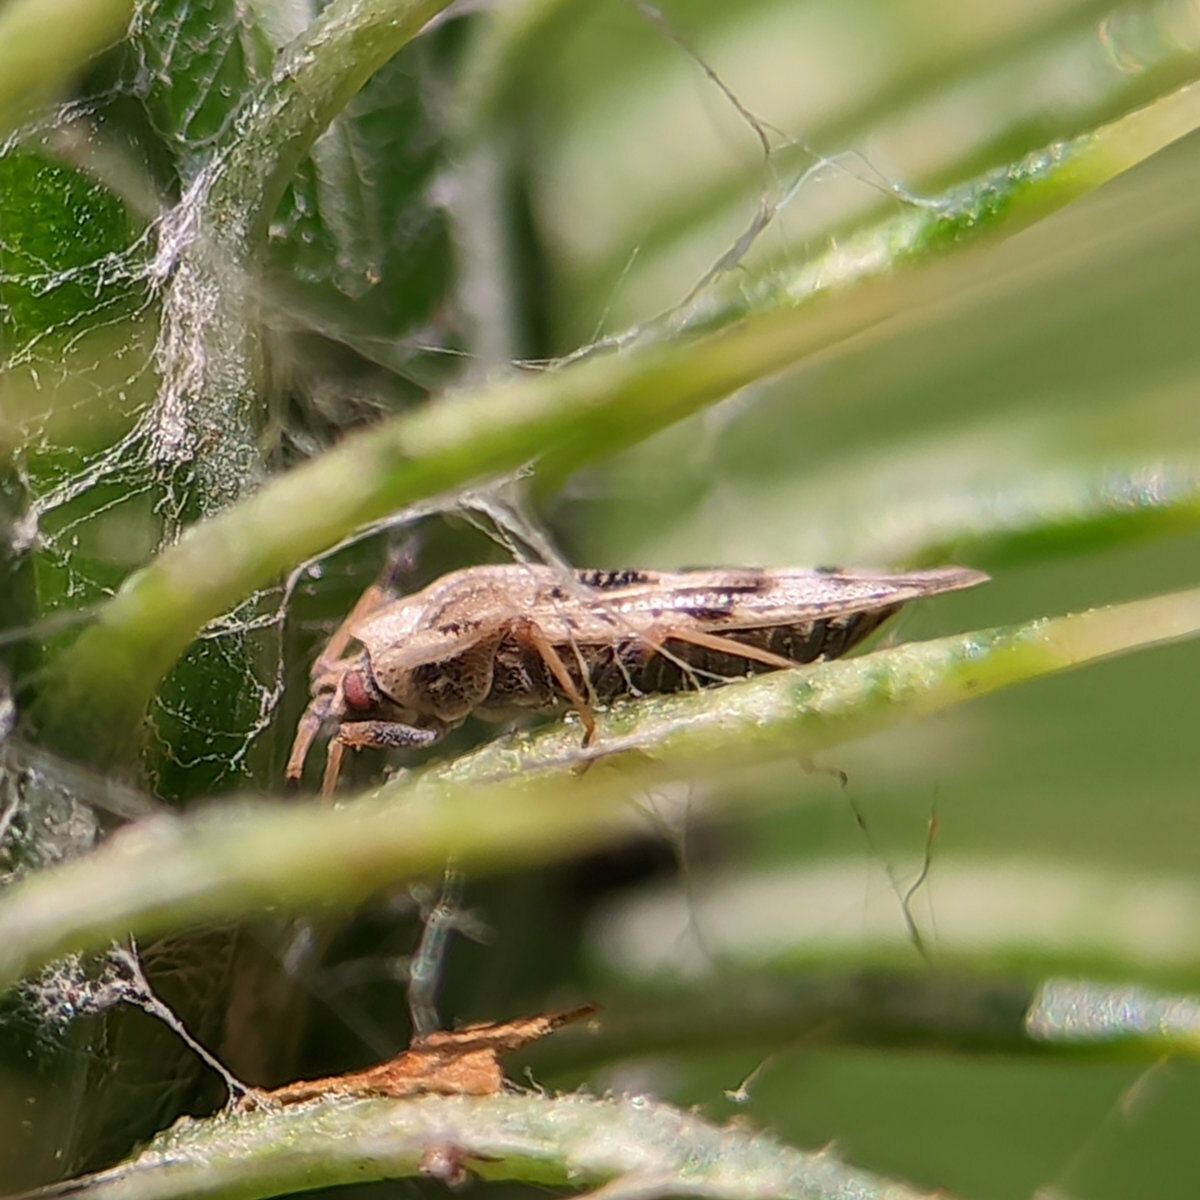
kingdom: Animalia
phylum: Arthropoda
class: Insecta
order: Hemiptera
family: Tingidae
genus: Tingis
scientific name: Tingis cardui
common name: Spear thistle lacebug
